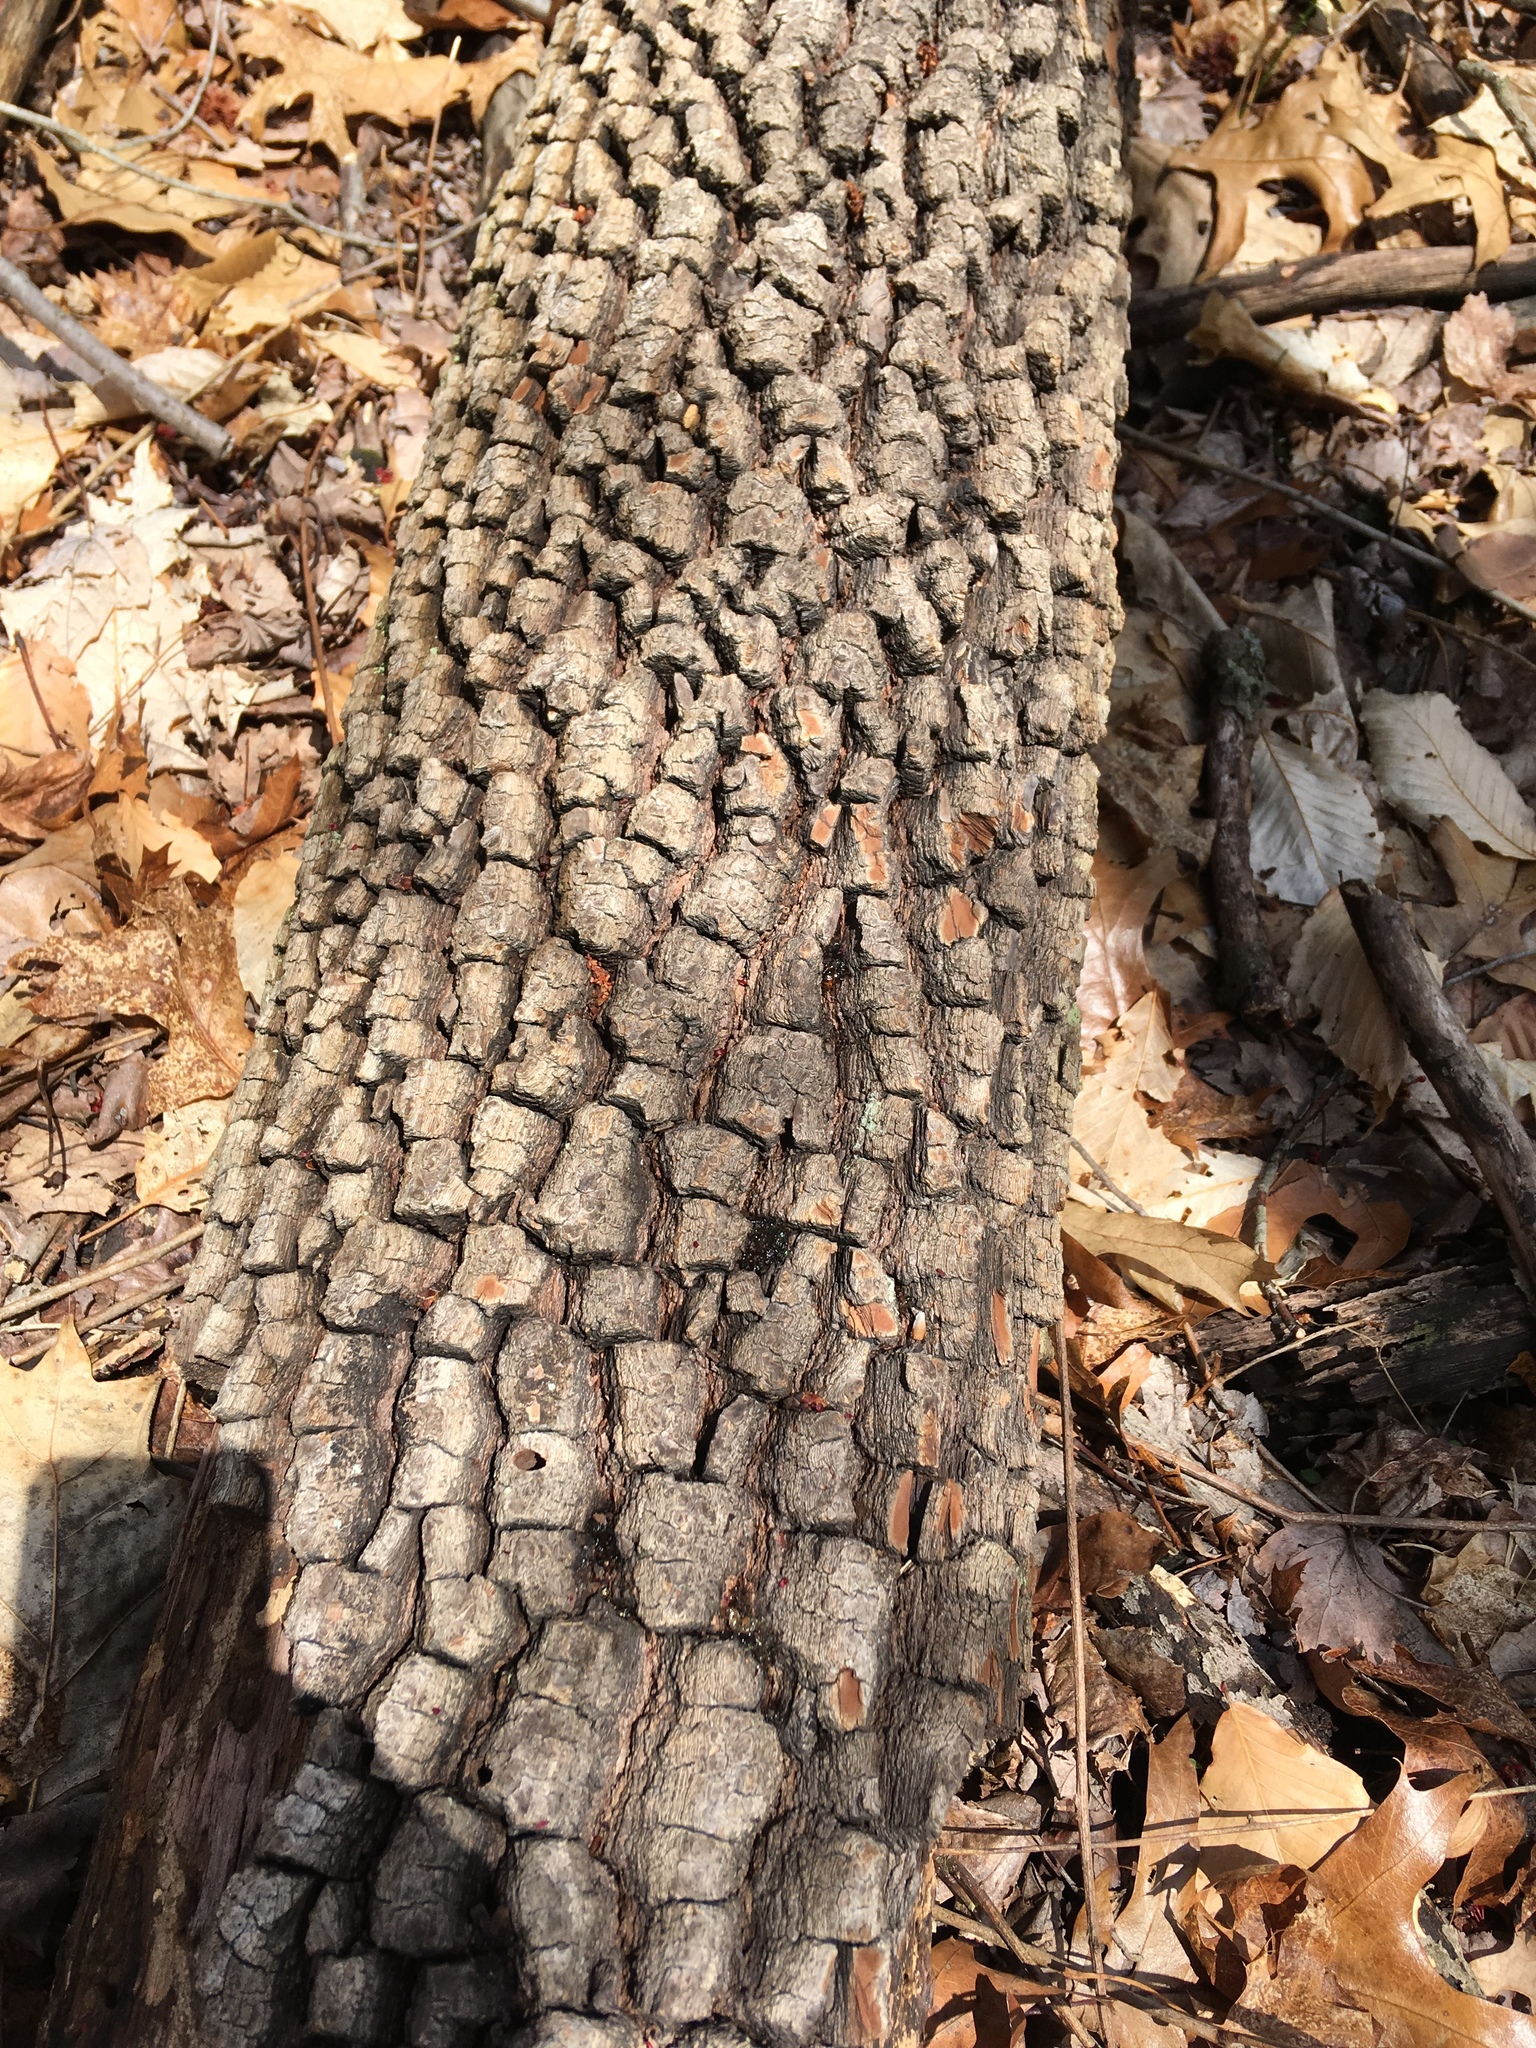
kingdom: Plantae
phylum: Tracheophyta
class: Magnoliopsida
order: Ericales
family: Ebenaceae
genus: Diospyros
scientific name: Diospyros virginiana
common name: Persimmon
